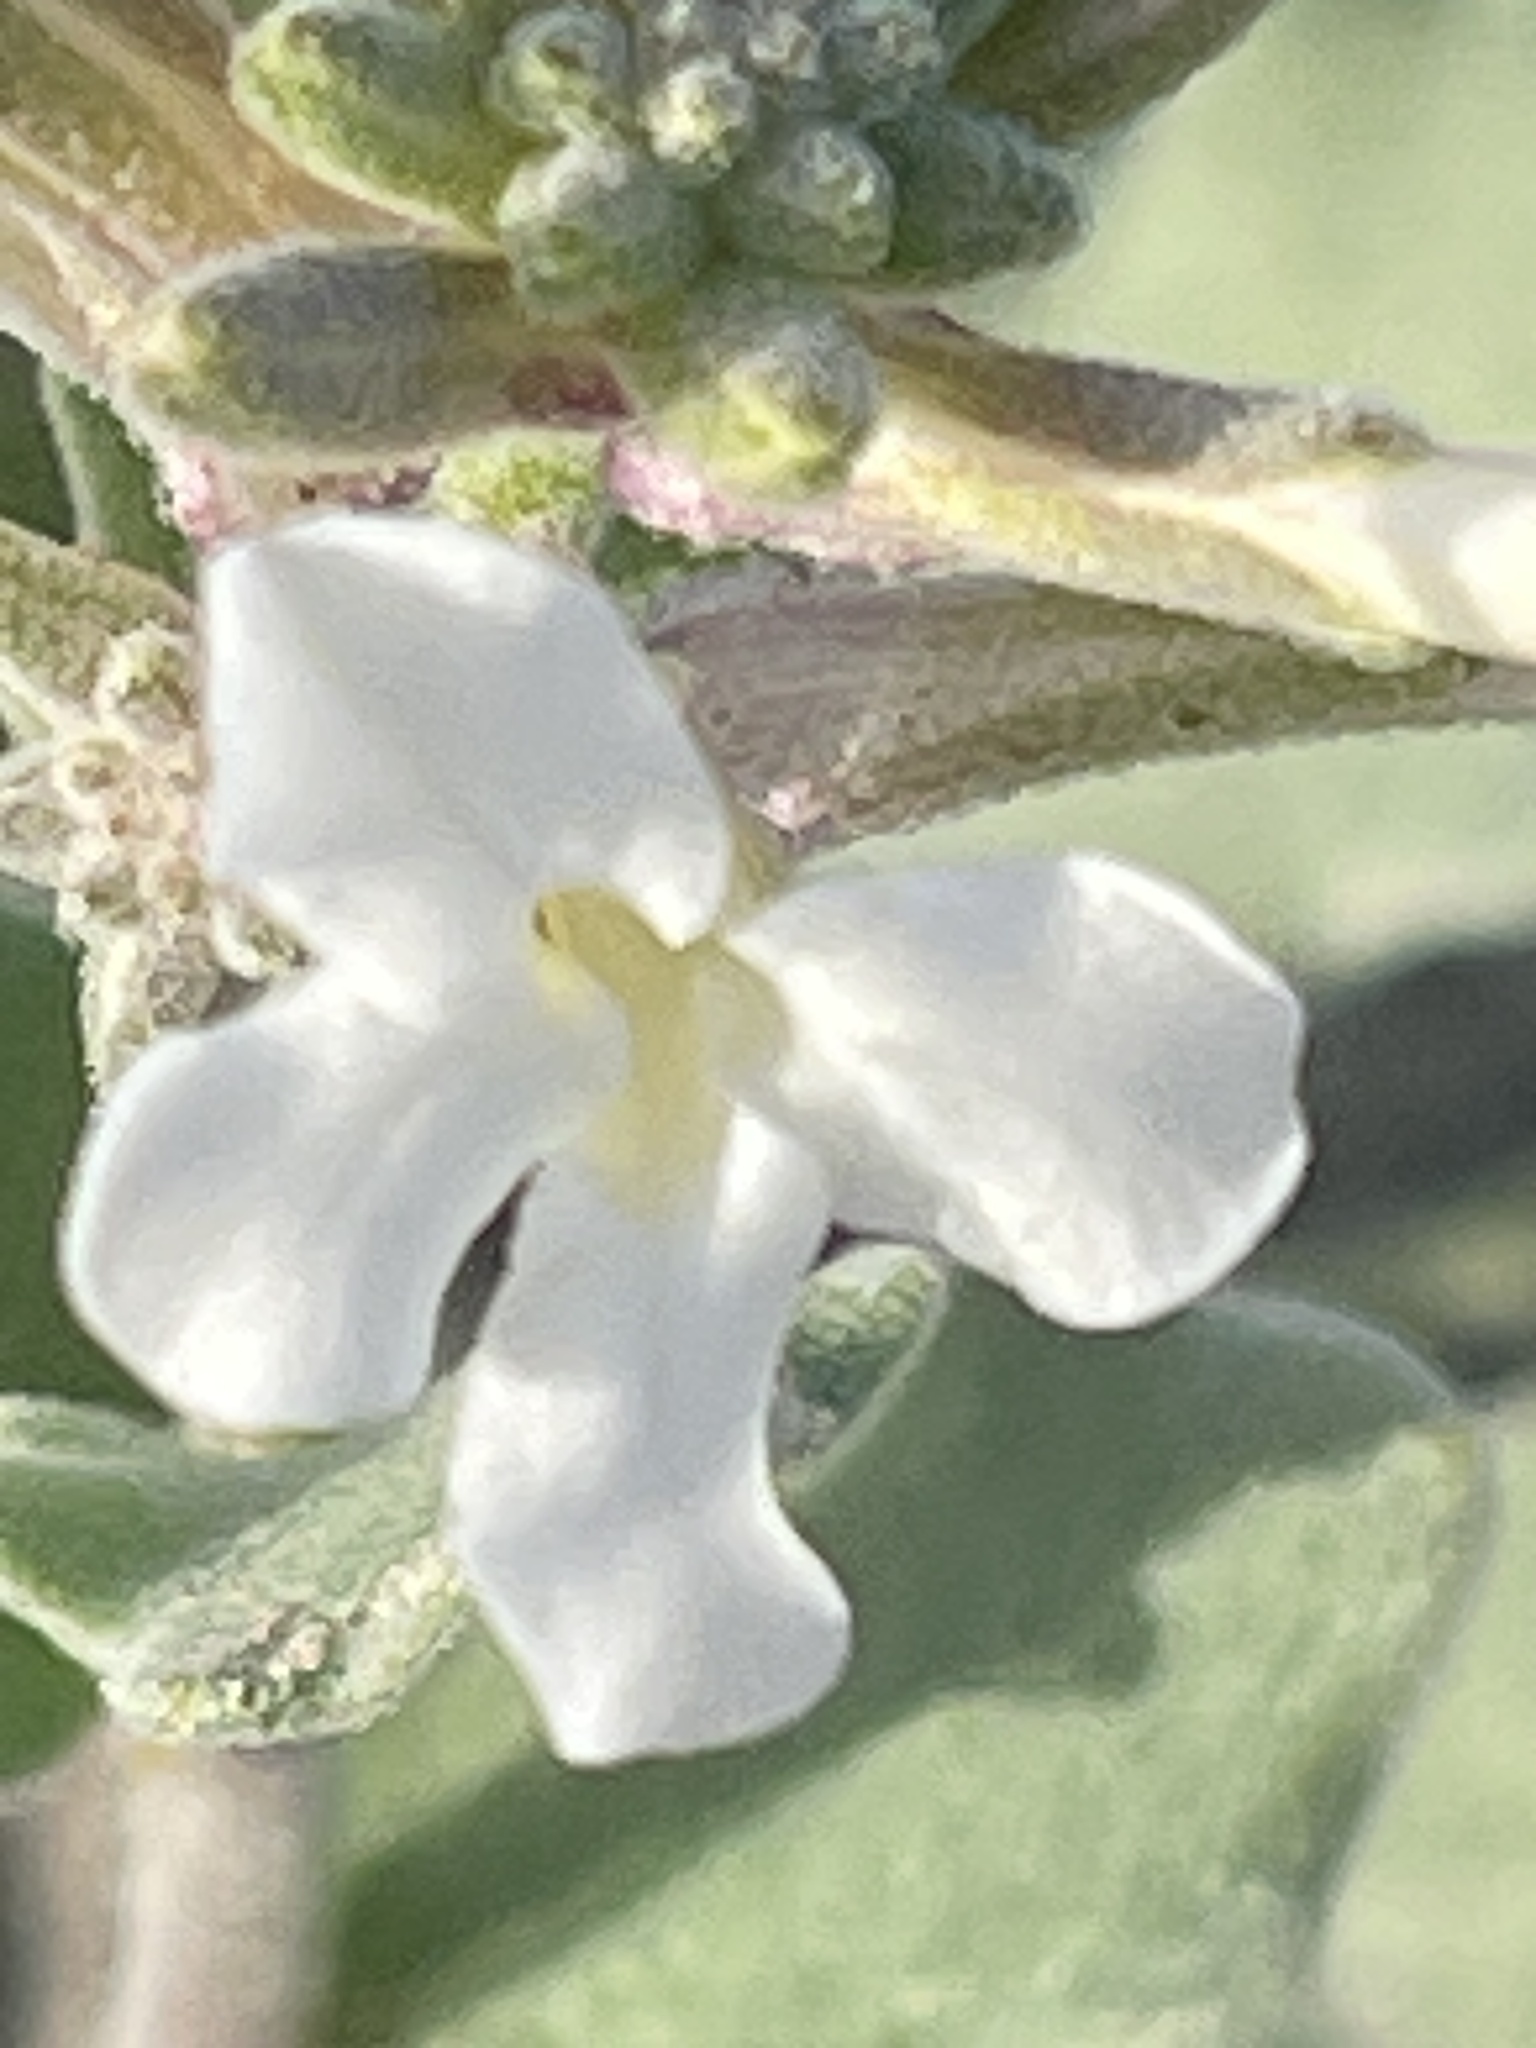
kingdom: Plantae
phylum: Tracheophyta
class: Magnoliopsida
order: Brassicales
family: Brassicaceae
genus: Dithyrea
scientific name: Dithyrea californica
